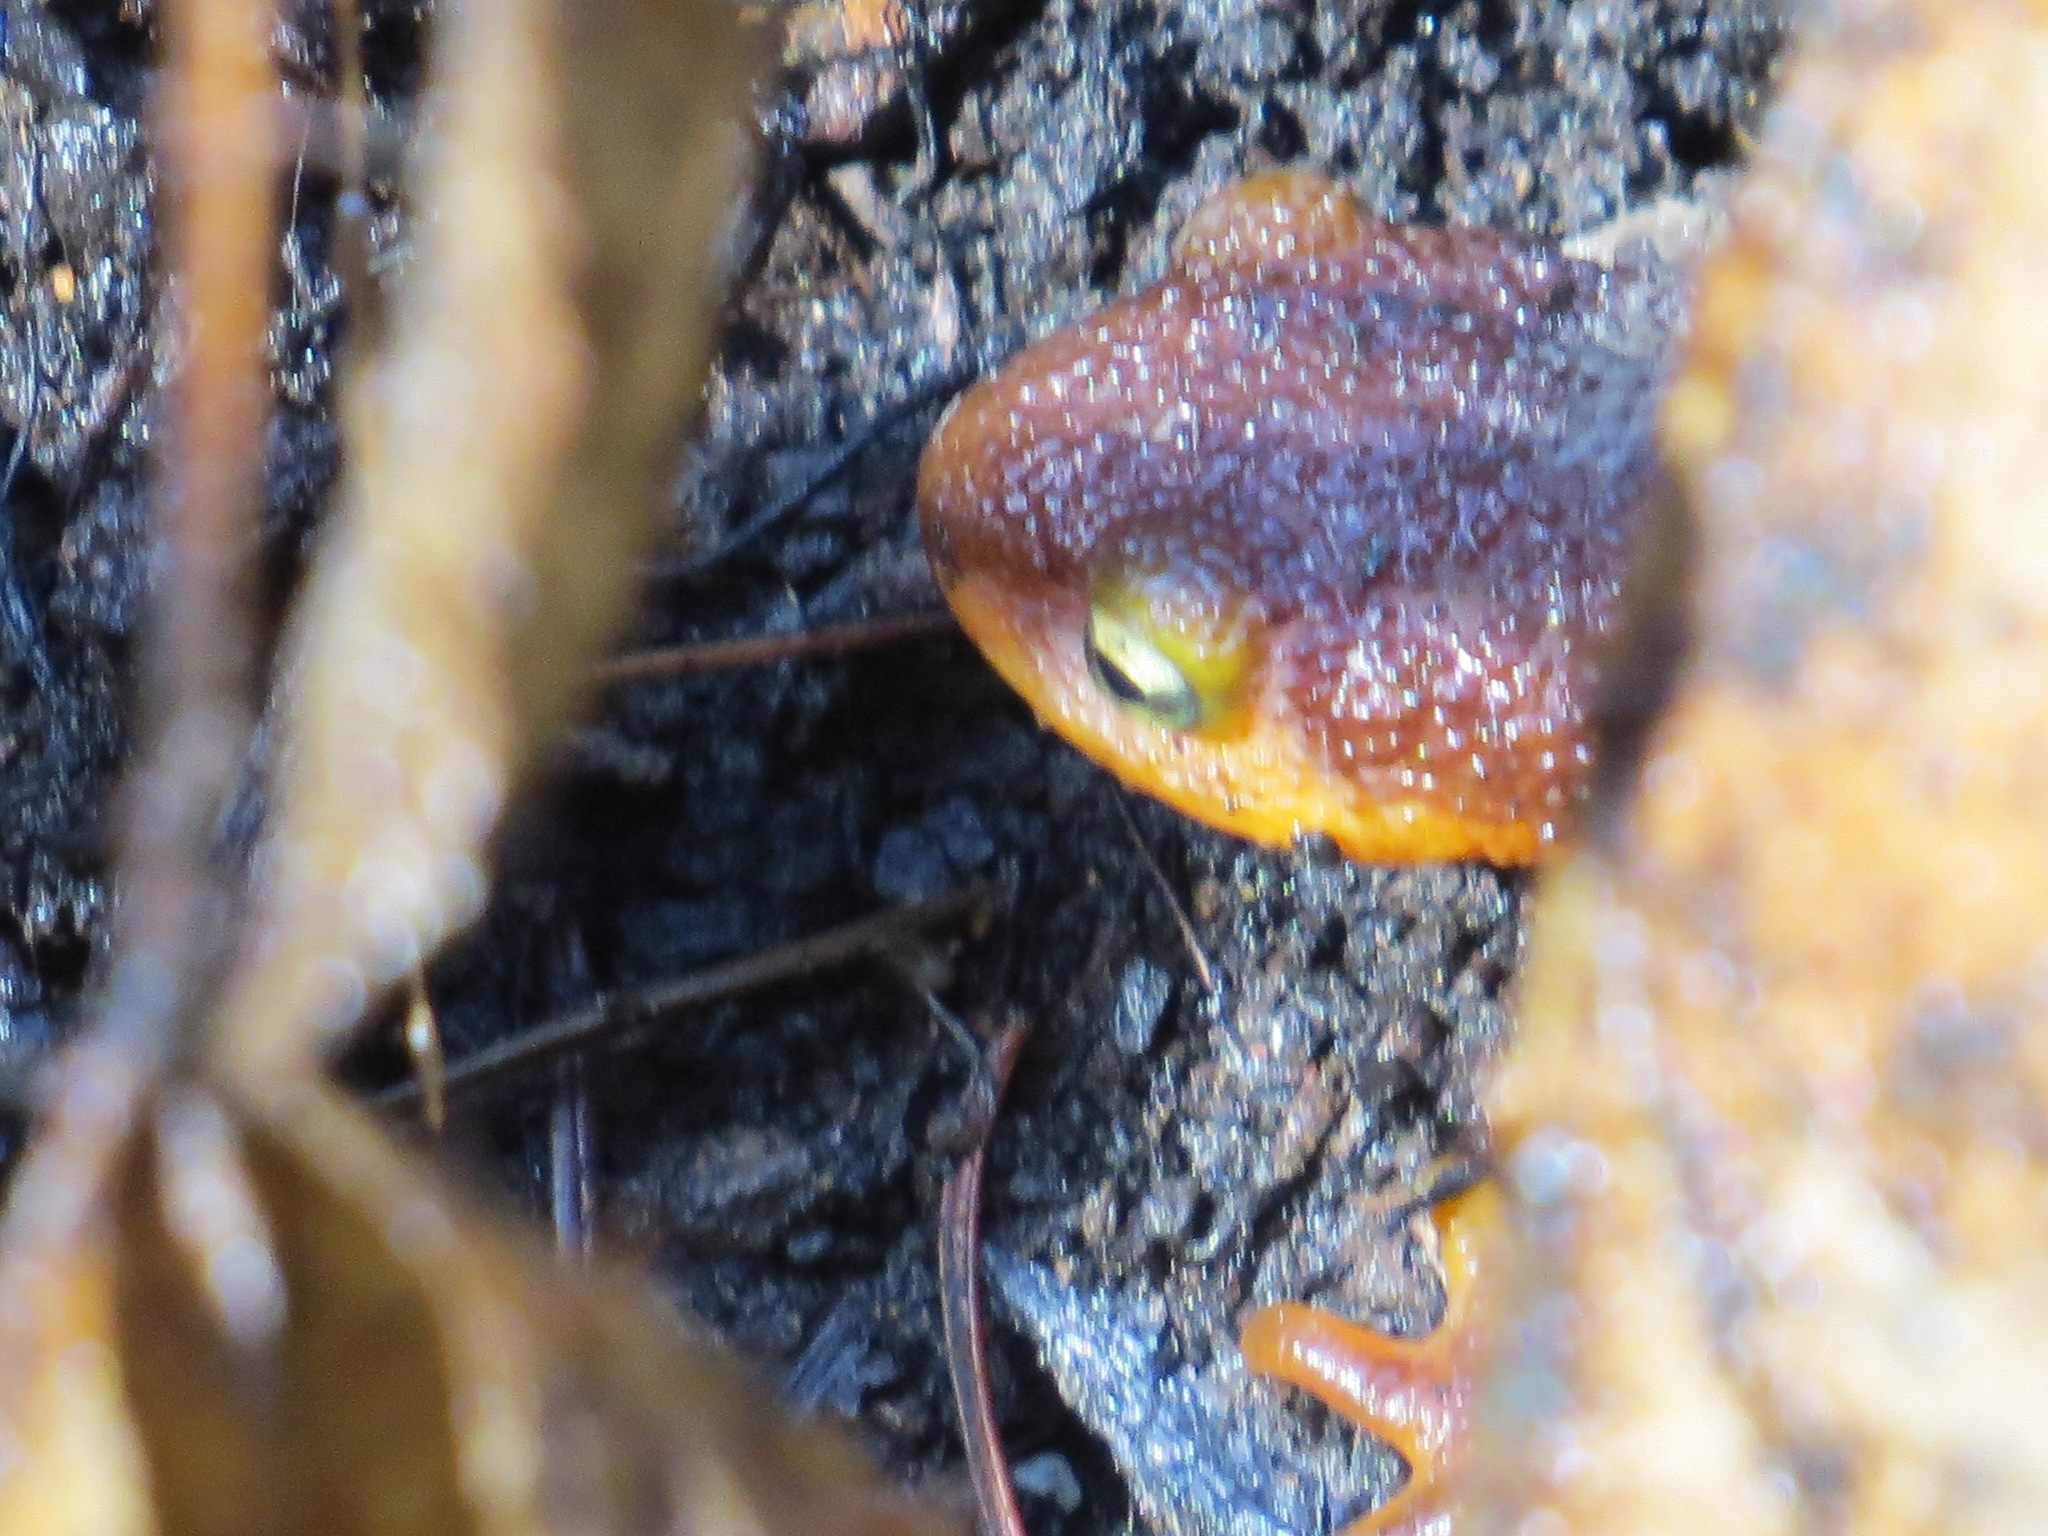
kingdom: Animalia
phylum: Chordata
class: Amphibia
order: Caudata
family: Salamandridae
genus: Taricha
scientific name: Taricha torosa
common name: California newt
